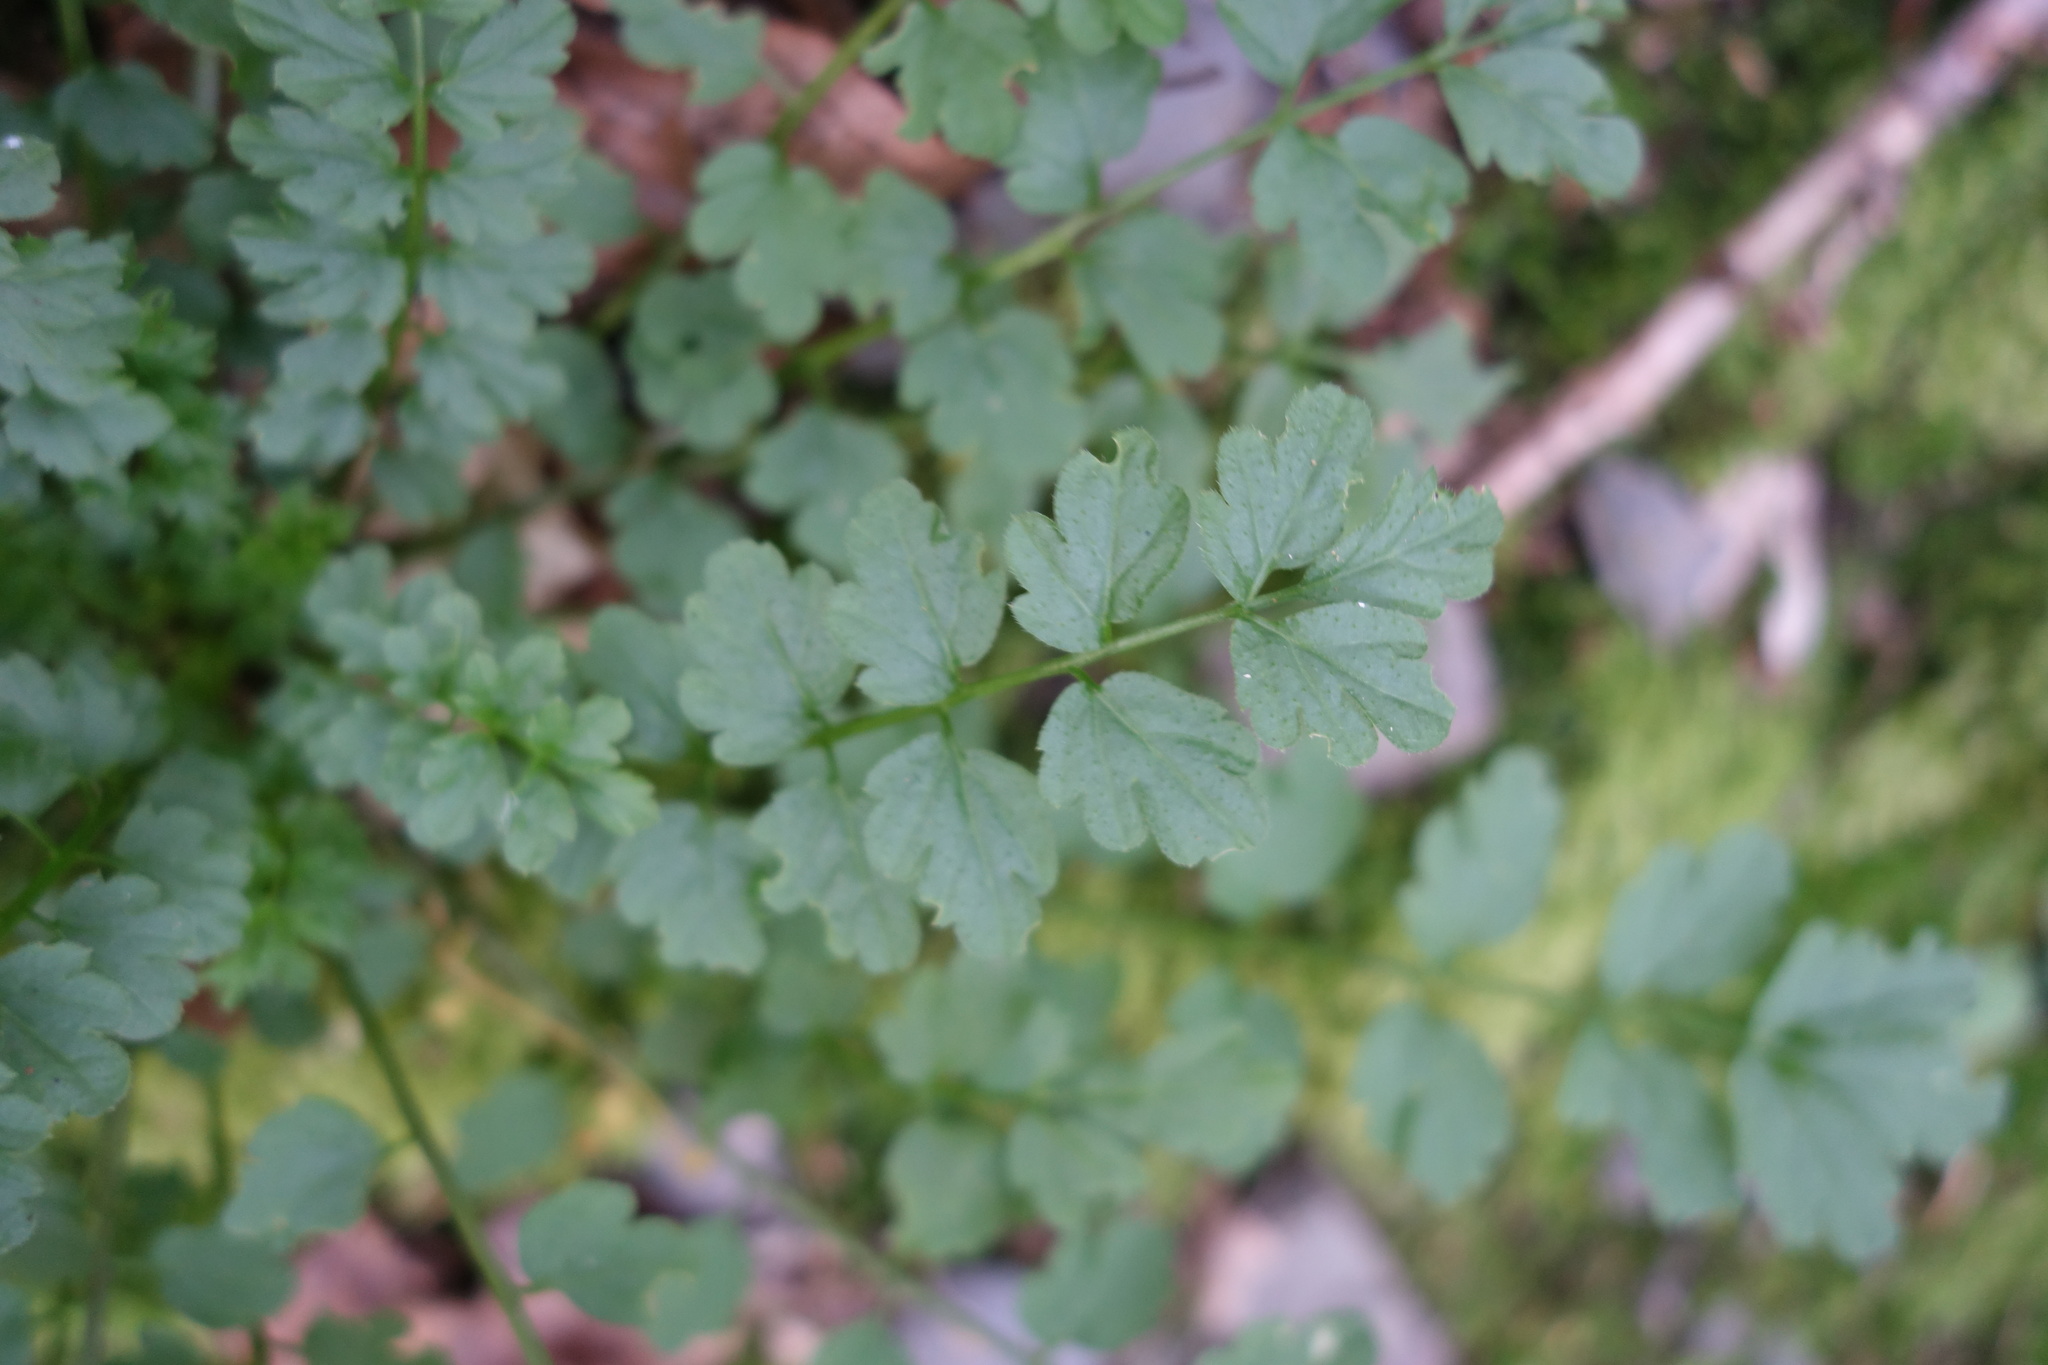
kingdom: Plantae
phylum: Tracheophyta
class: Magnoliopsida
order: Brassicales
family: Brassicaceae
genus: Cardamine
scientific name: Cardamine impatiens
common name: Narrow-leaved bitter-cress
